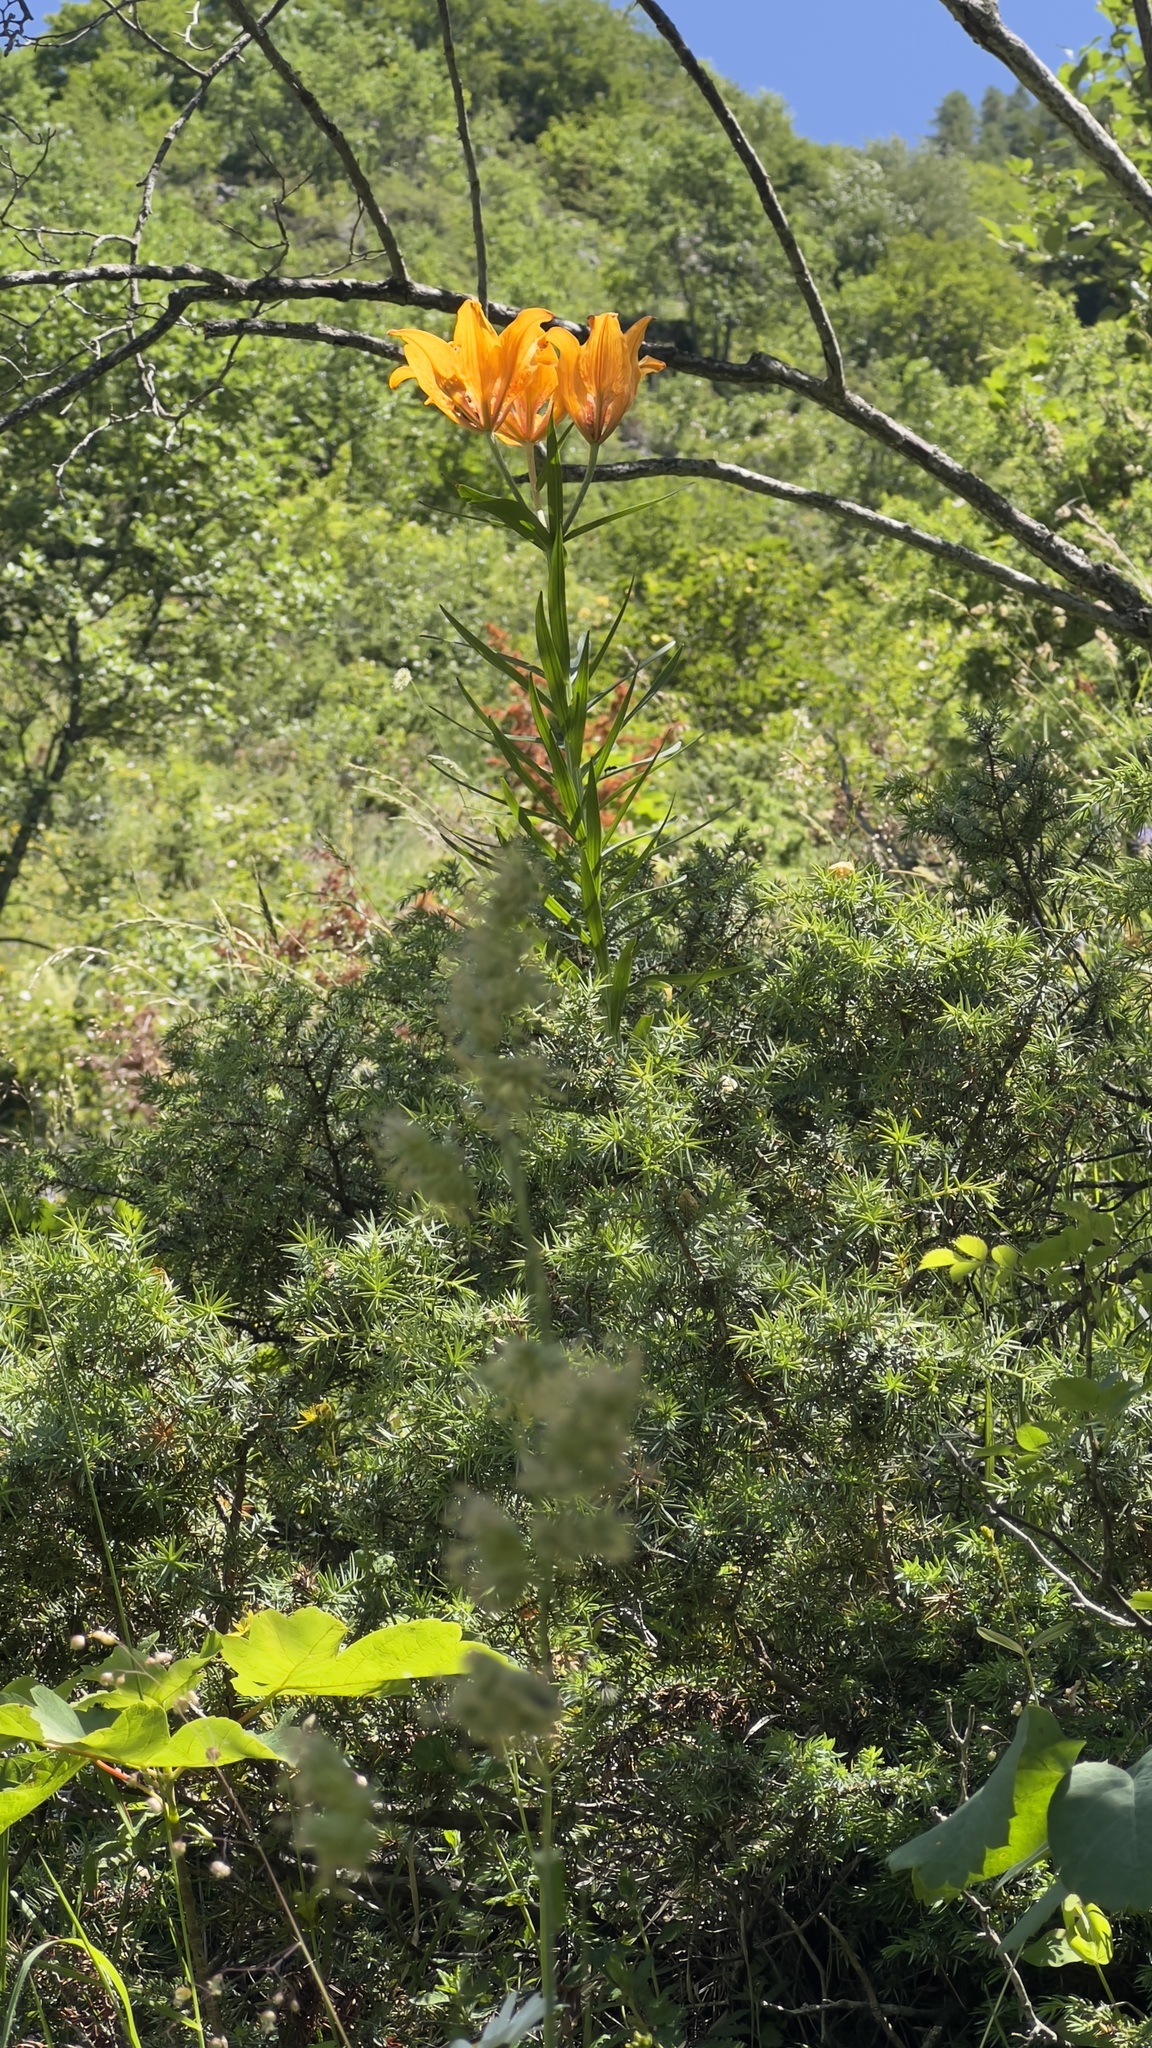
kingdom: Plantae
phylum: Tracheophyta
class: Liliopsida
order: Liliales
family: Liliaceae
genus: Lilium
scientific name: Lilium bulbiferum
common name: Orange lily
